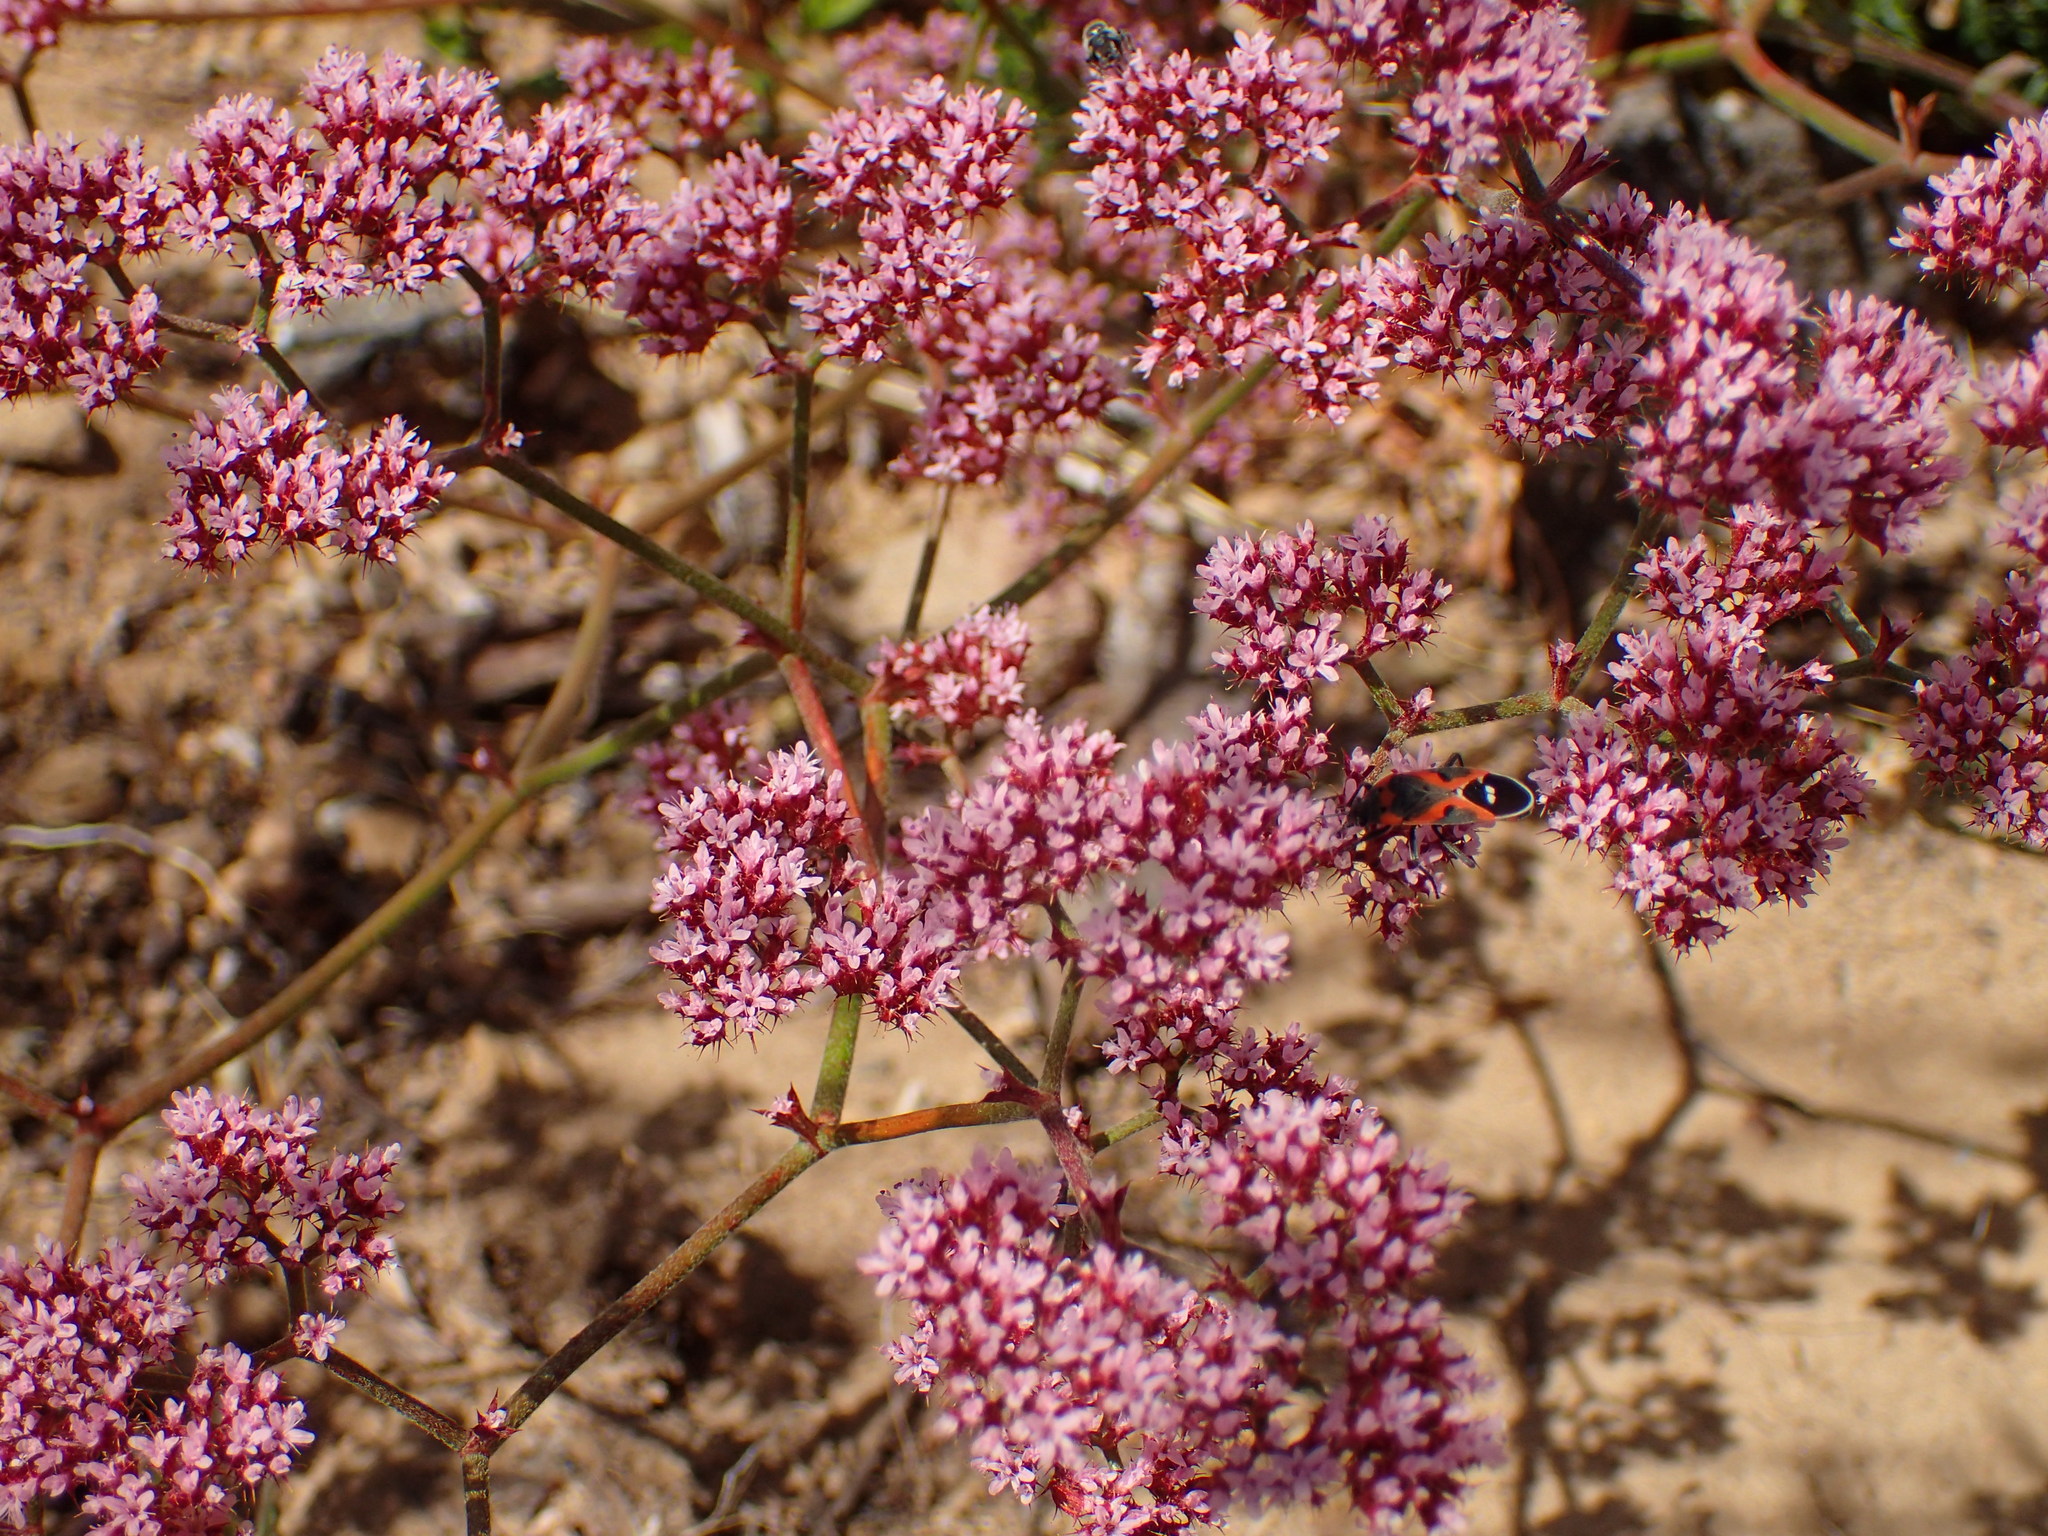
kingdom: Plantae
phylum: Tracheophyta
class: Magnoliopsida
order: Caryophyllales
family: Polygonaceae
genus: Chorizanthe
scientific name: Chorizanthe staticoides
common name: Turkish rugging
